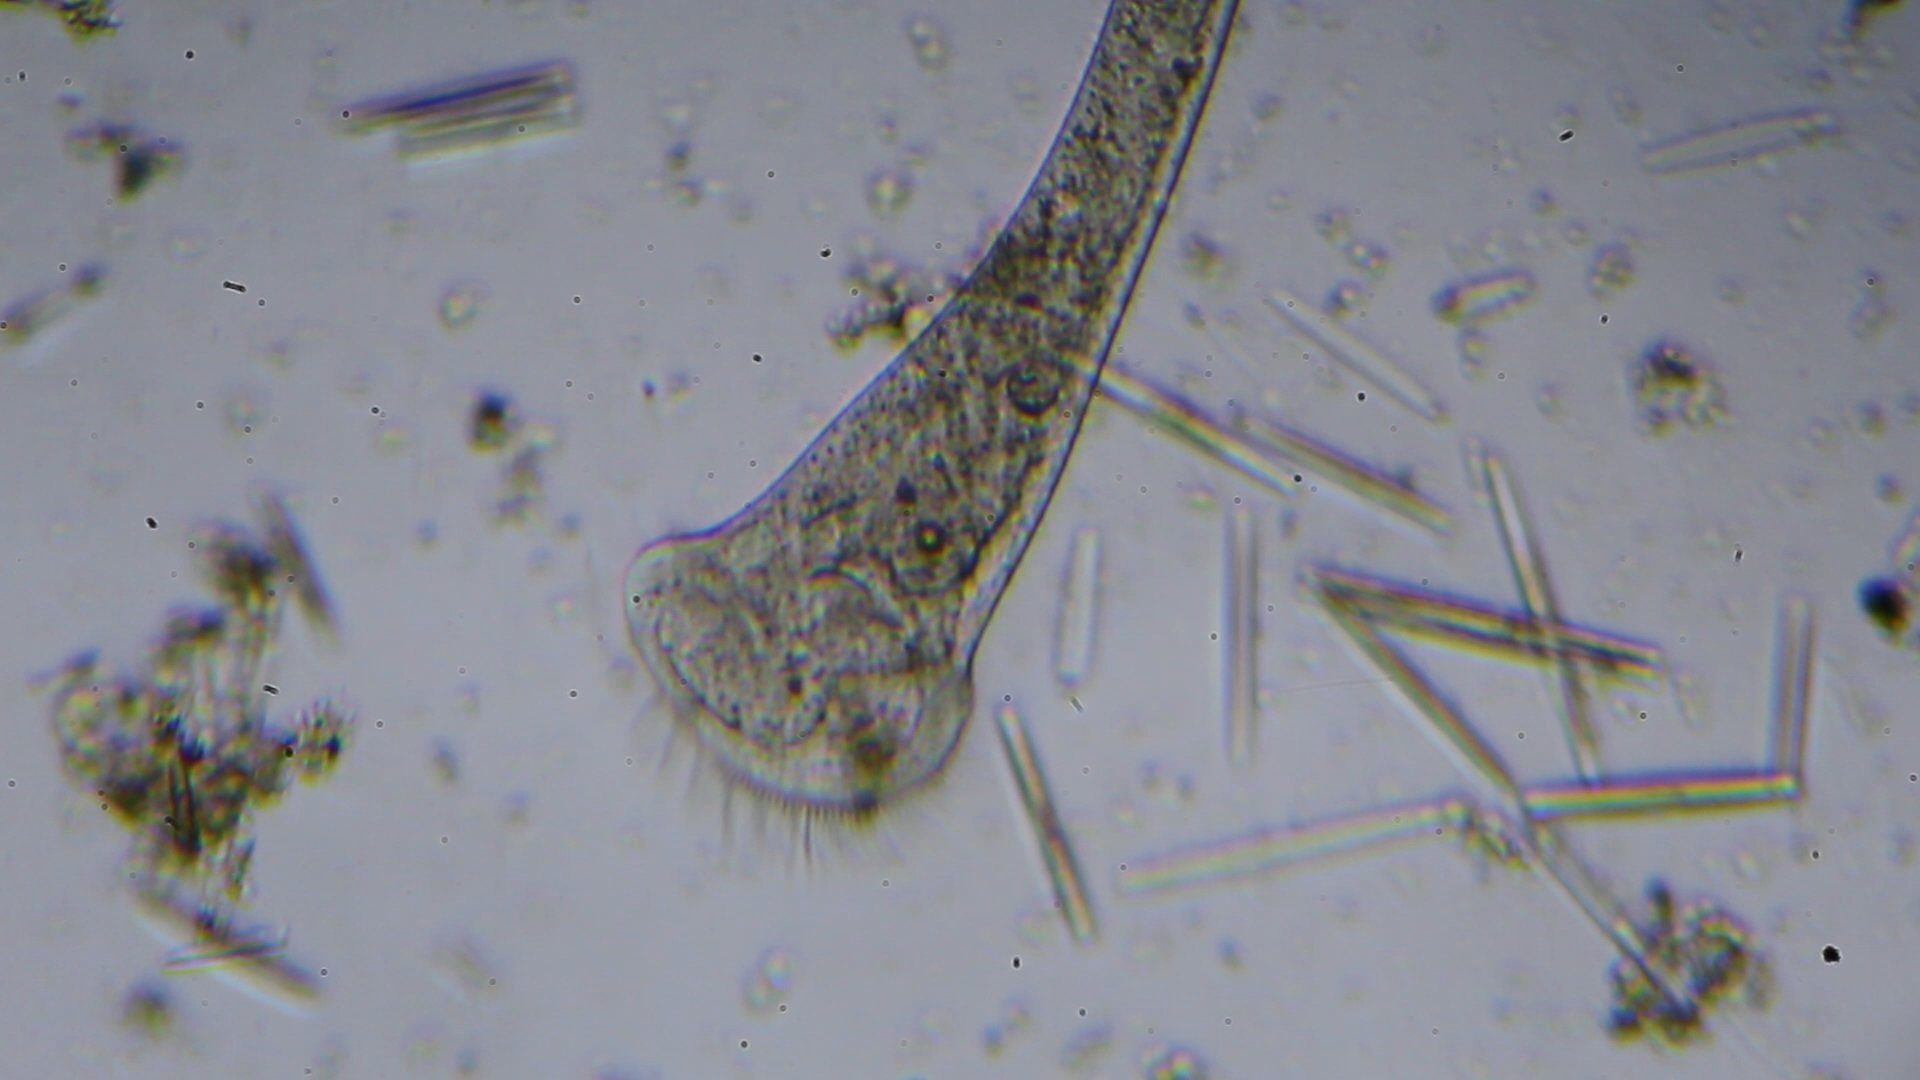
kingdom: Chromista
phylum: Ciliophora
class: Heterotrichea
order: Heterotrichida
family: Stentoridae
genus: Stentor
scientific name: Stentor roeselii
